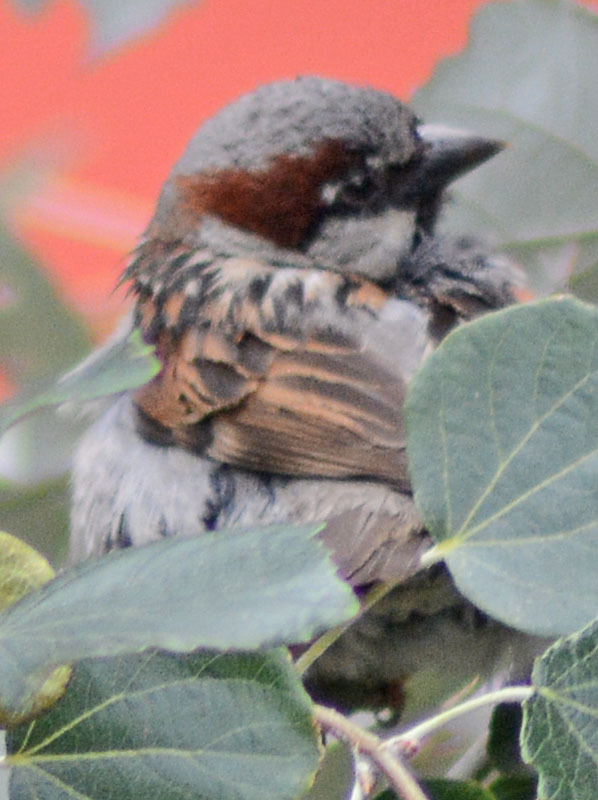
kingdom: Animalia
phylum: Chordata
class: Aves
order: Passeriformes
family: Passeridae
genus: Passer
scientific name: Passer domesticus
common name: House sparrow
